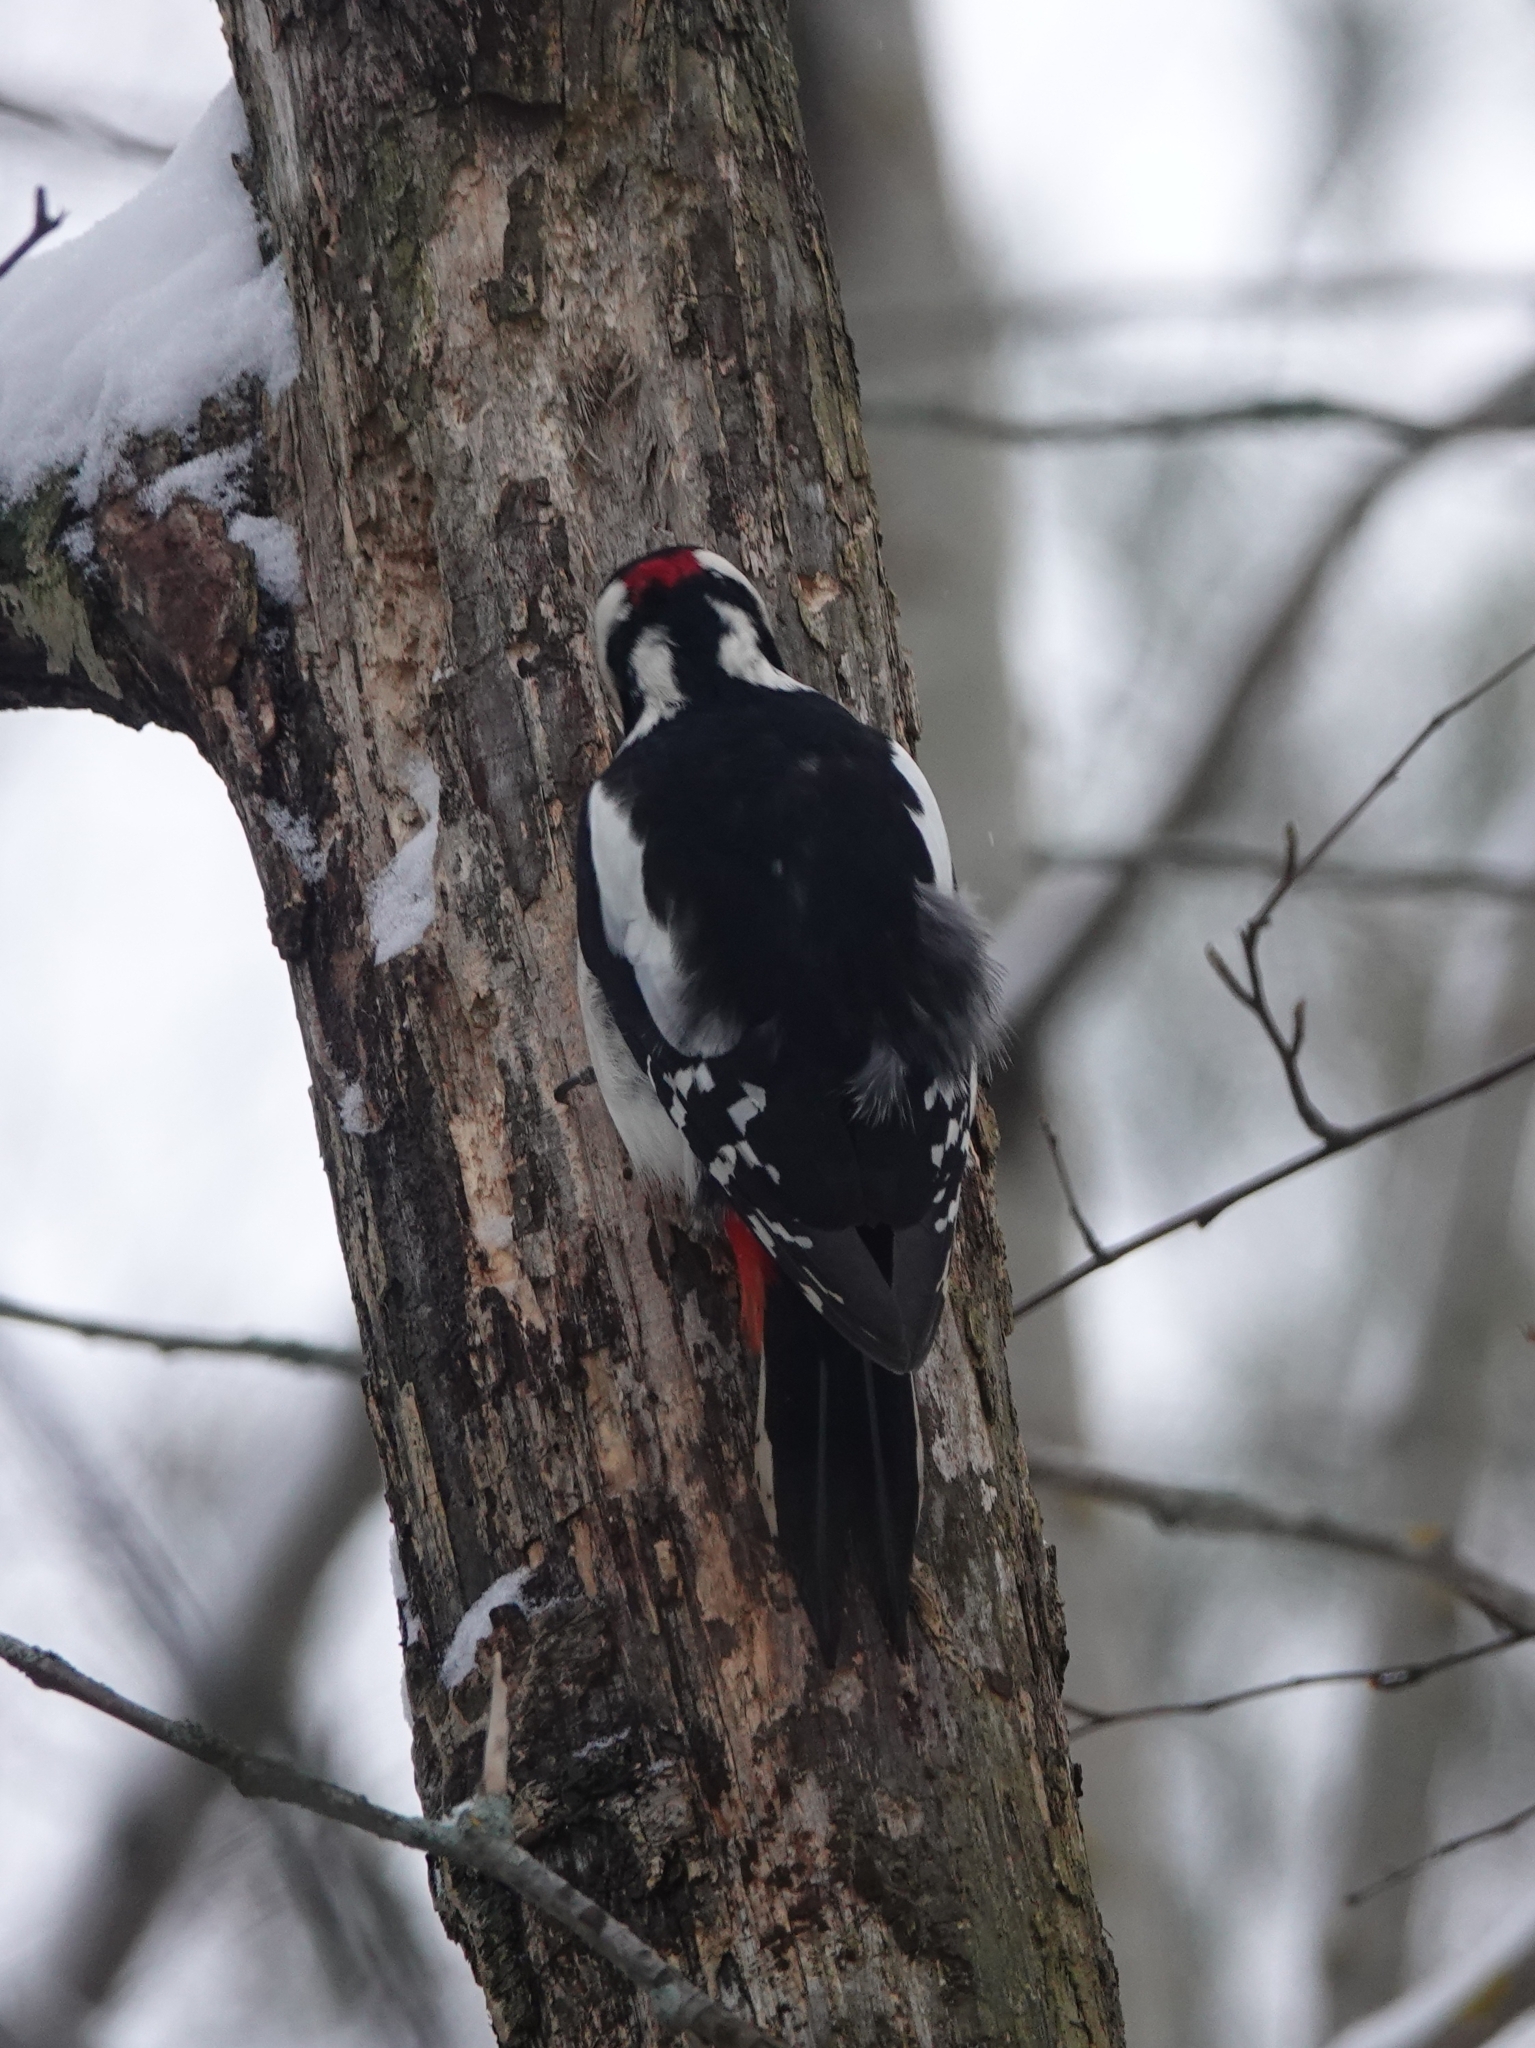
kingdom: Animalia
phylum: Chordata
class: Aves
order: Piciformes
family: Picidae
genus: Dendrocopos
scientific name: Dendrocopos major
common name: Great spotted woodpecker
